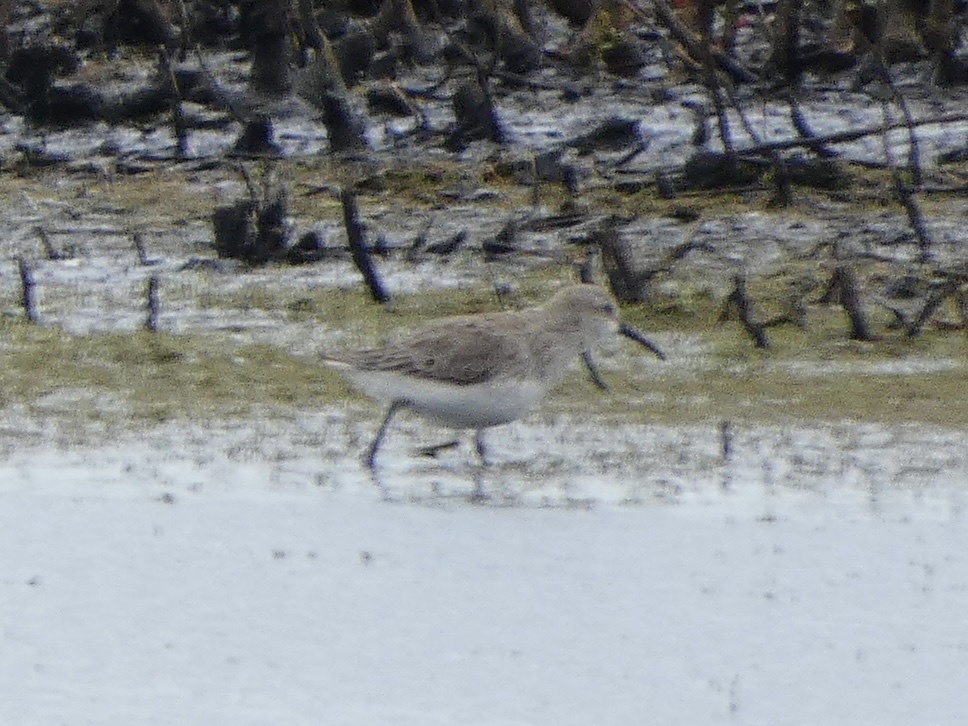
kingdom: Animalia
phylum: Chordata
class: Aves
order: Charadriiformes
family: Scolopacidae
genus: Calidris
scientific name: Calidris alpina
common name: Dunlin
